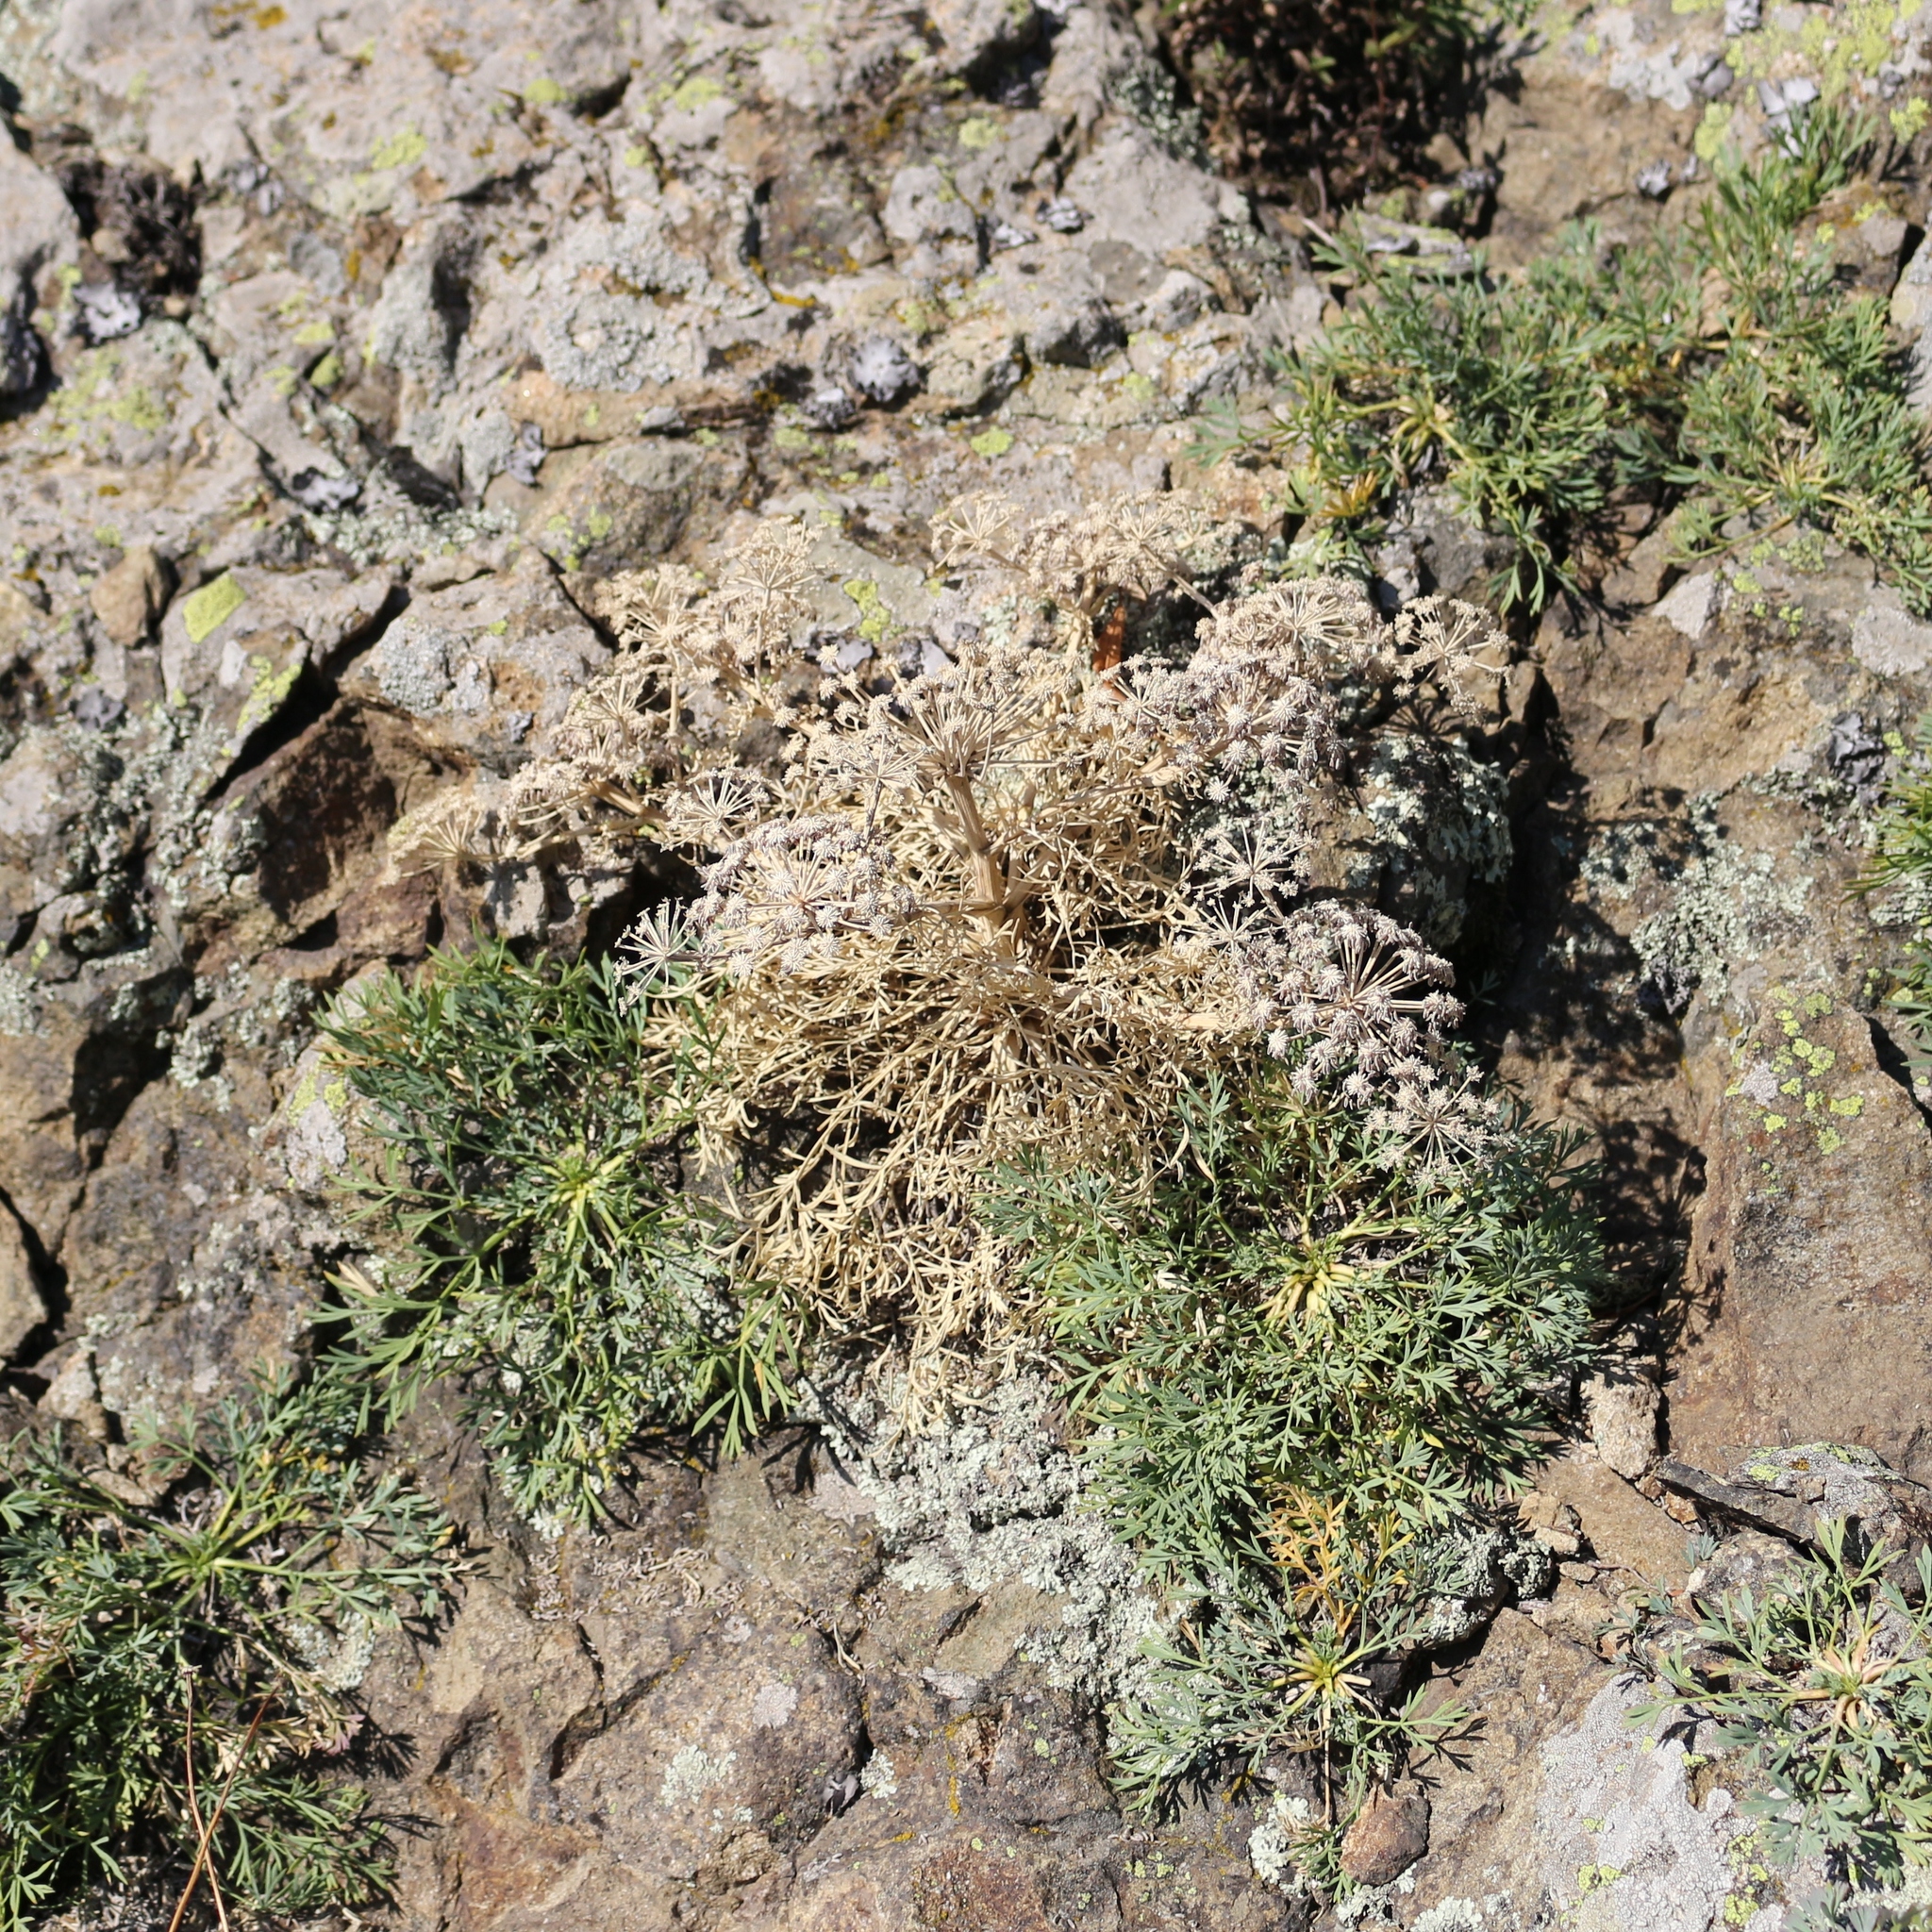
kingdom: Plantae
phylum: Tracheophyta
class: Magnoliopsida
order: Apiales
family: Apiaceae
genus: Hippomarathrum
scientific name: Hippomarathrum petraeum
